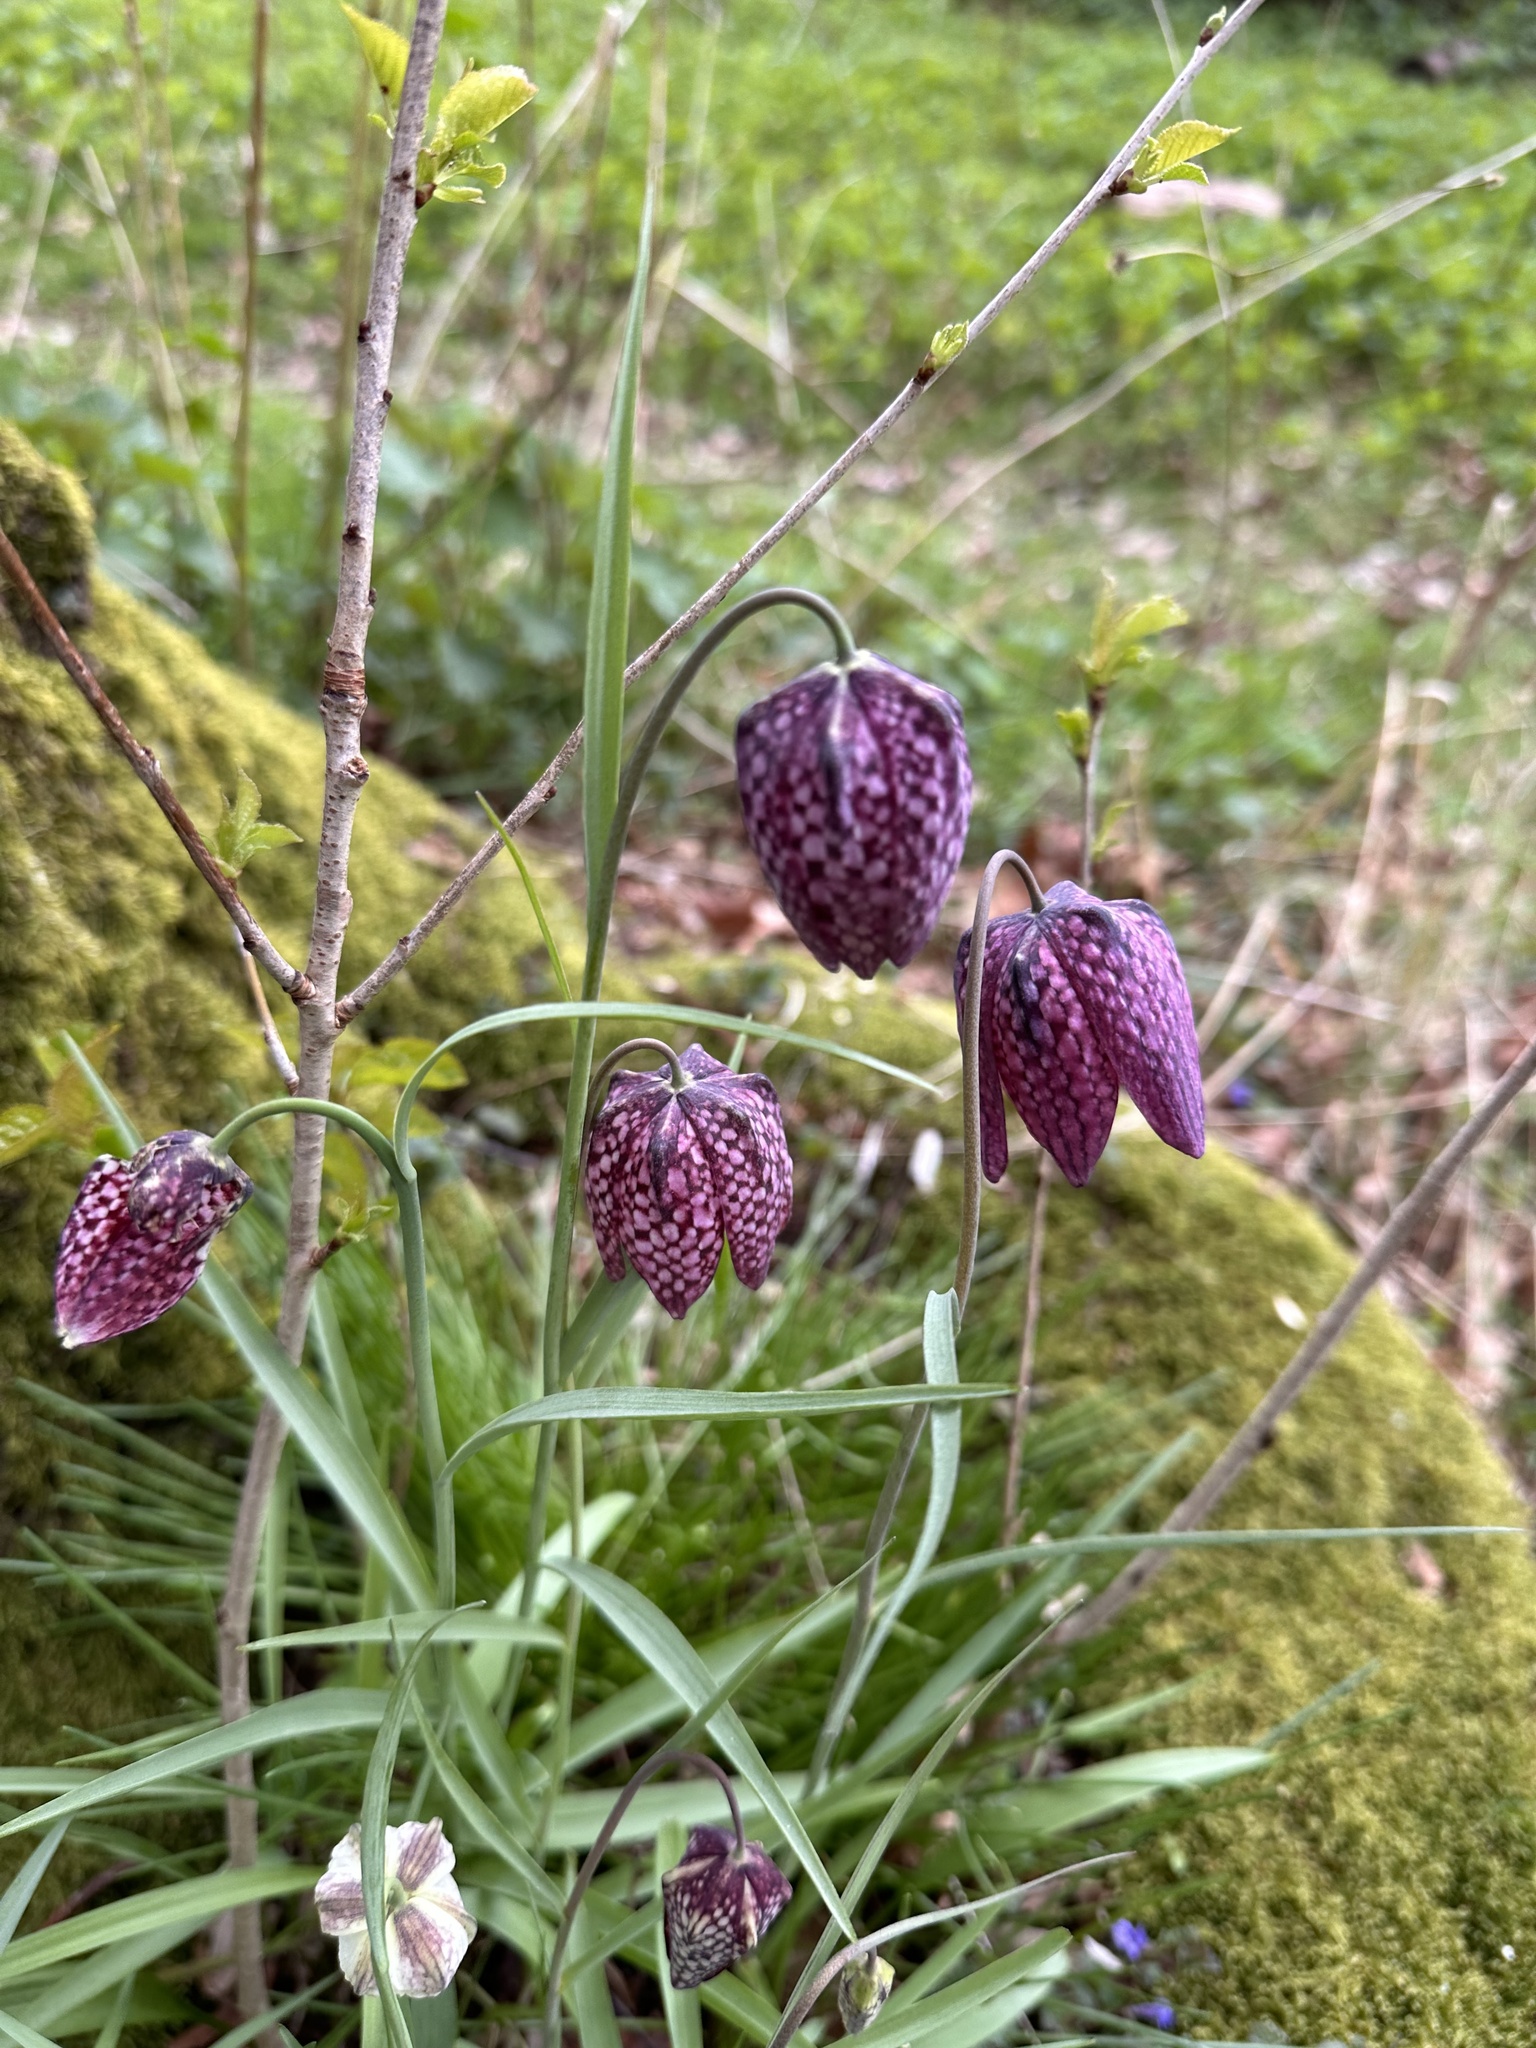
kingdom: Plantae
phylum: Tracheophyta
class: Liliopsida
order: Liliales
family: Liliaceae
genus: Fritillaria
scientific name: Fritillaria meleagris
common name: Fritillary
